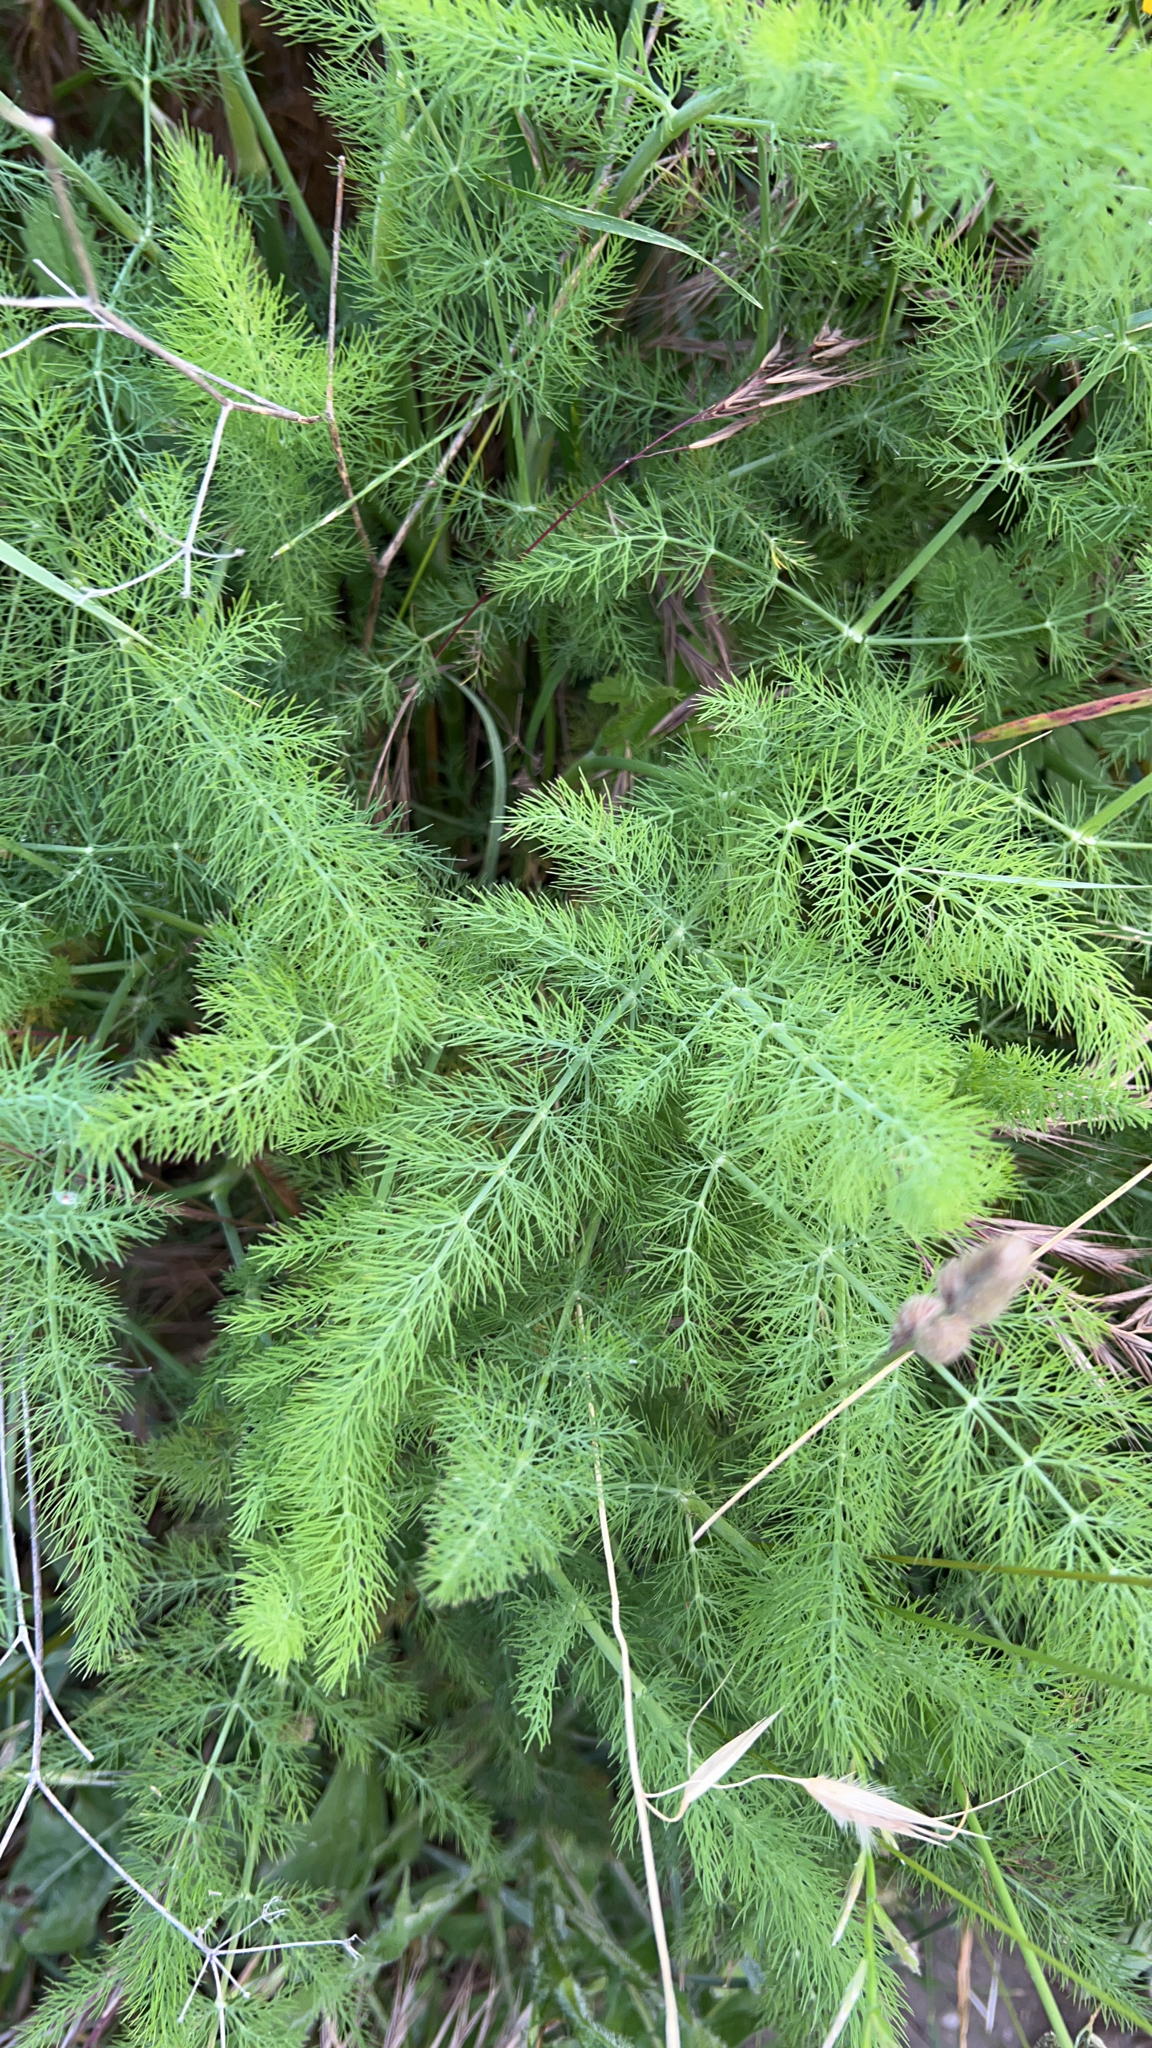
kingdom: Plantae
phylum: Tracheophyta
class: Magnoliopsida
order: Apiales
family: Apiaceae
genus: Foeniculum
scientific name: Foeniculum vulgare
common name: Fennel
